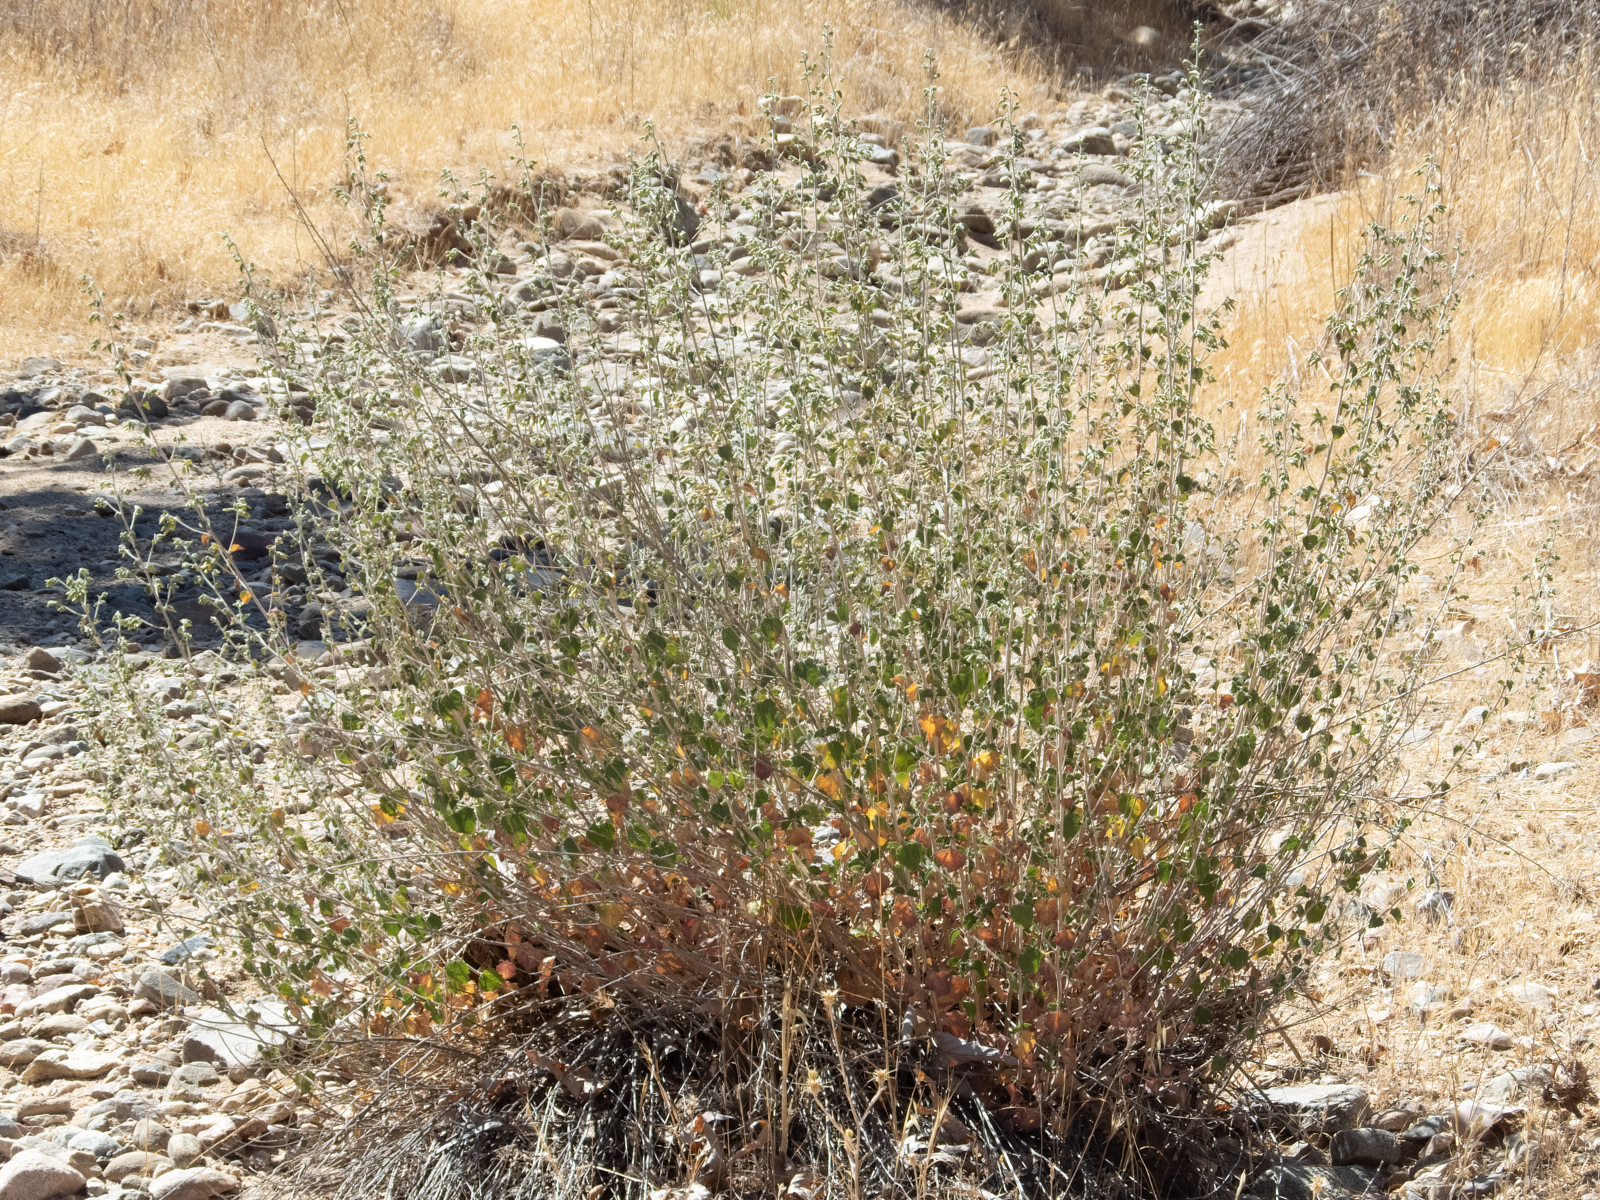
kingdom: Plantae
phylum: Tracheophyta
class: Magnoliopsida
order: Asterales
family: Asteraceae
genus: Brickellia
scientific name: Brickellia californica
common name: California brickellbush
